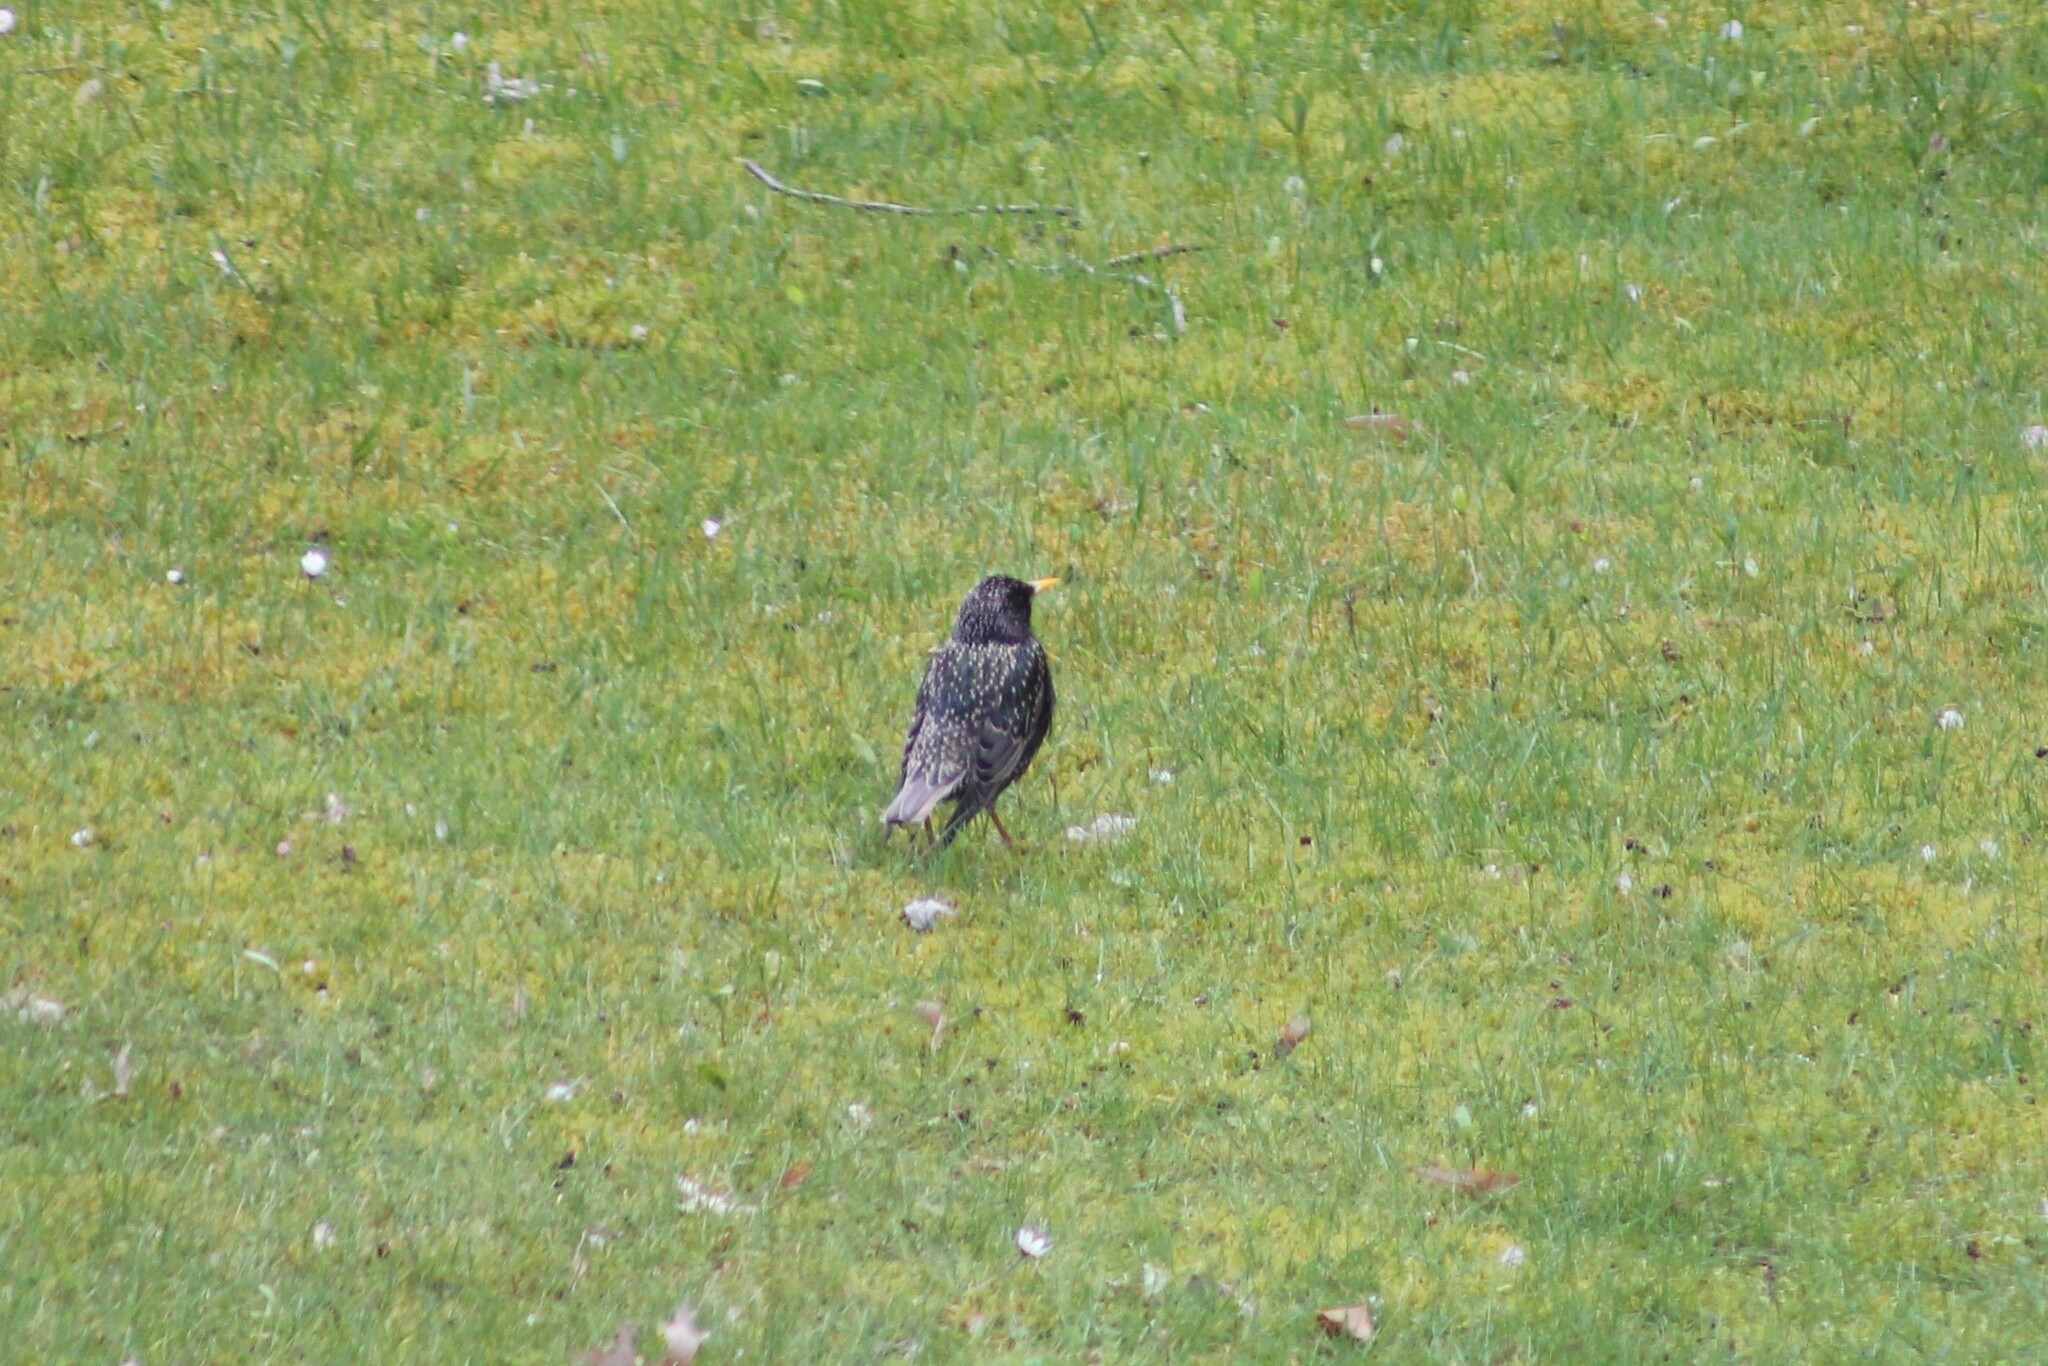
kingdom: Animalia
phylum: Chordata
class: Aves
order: Passeriformes
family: Sturnidae
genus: Sturnus
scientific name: Sturnus vulgaris
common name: Common starling
